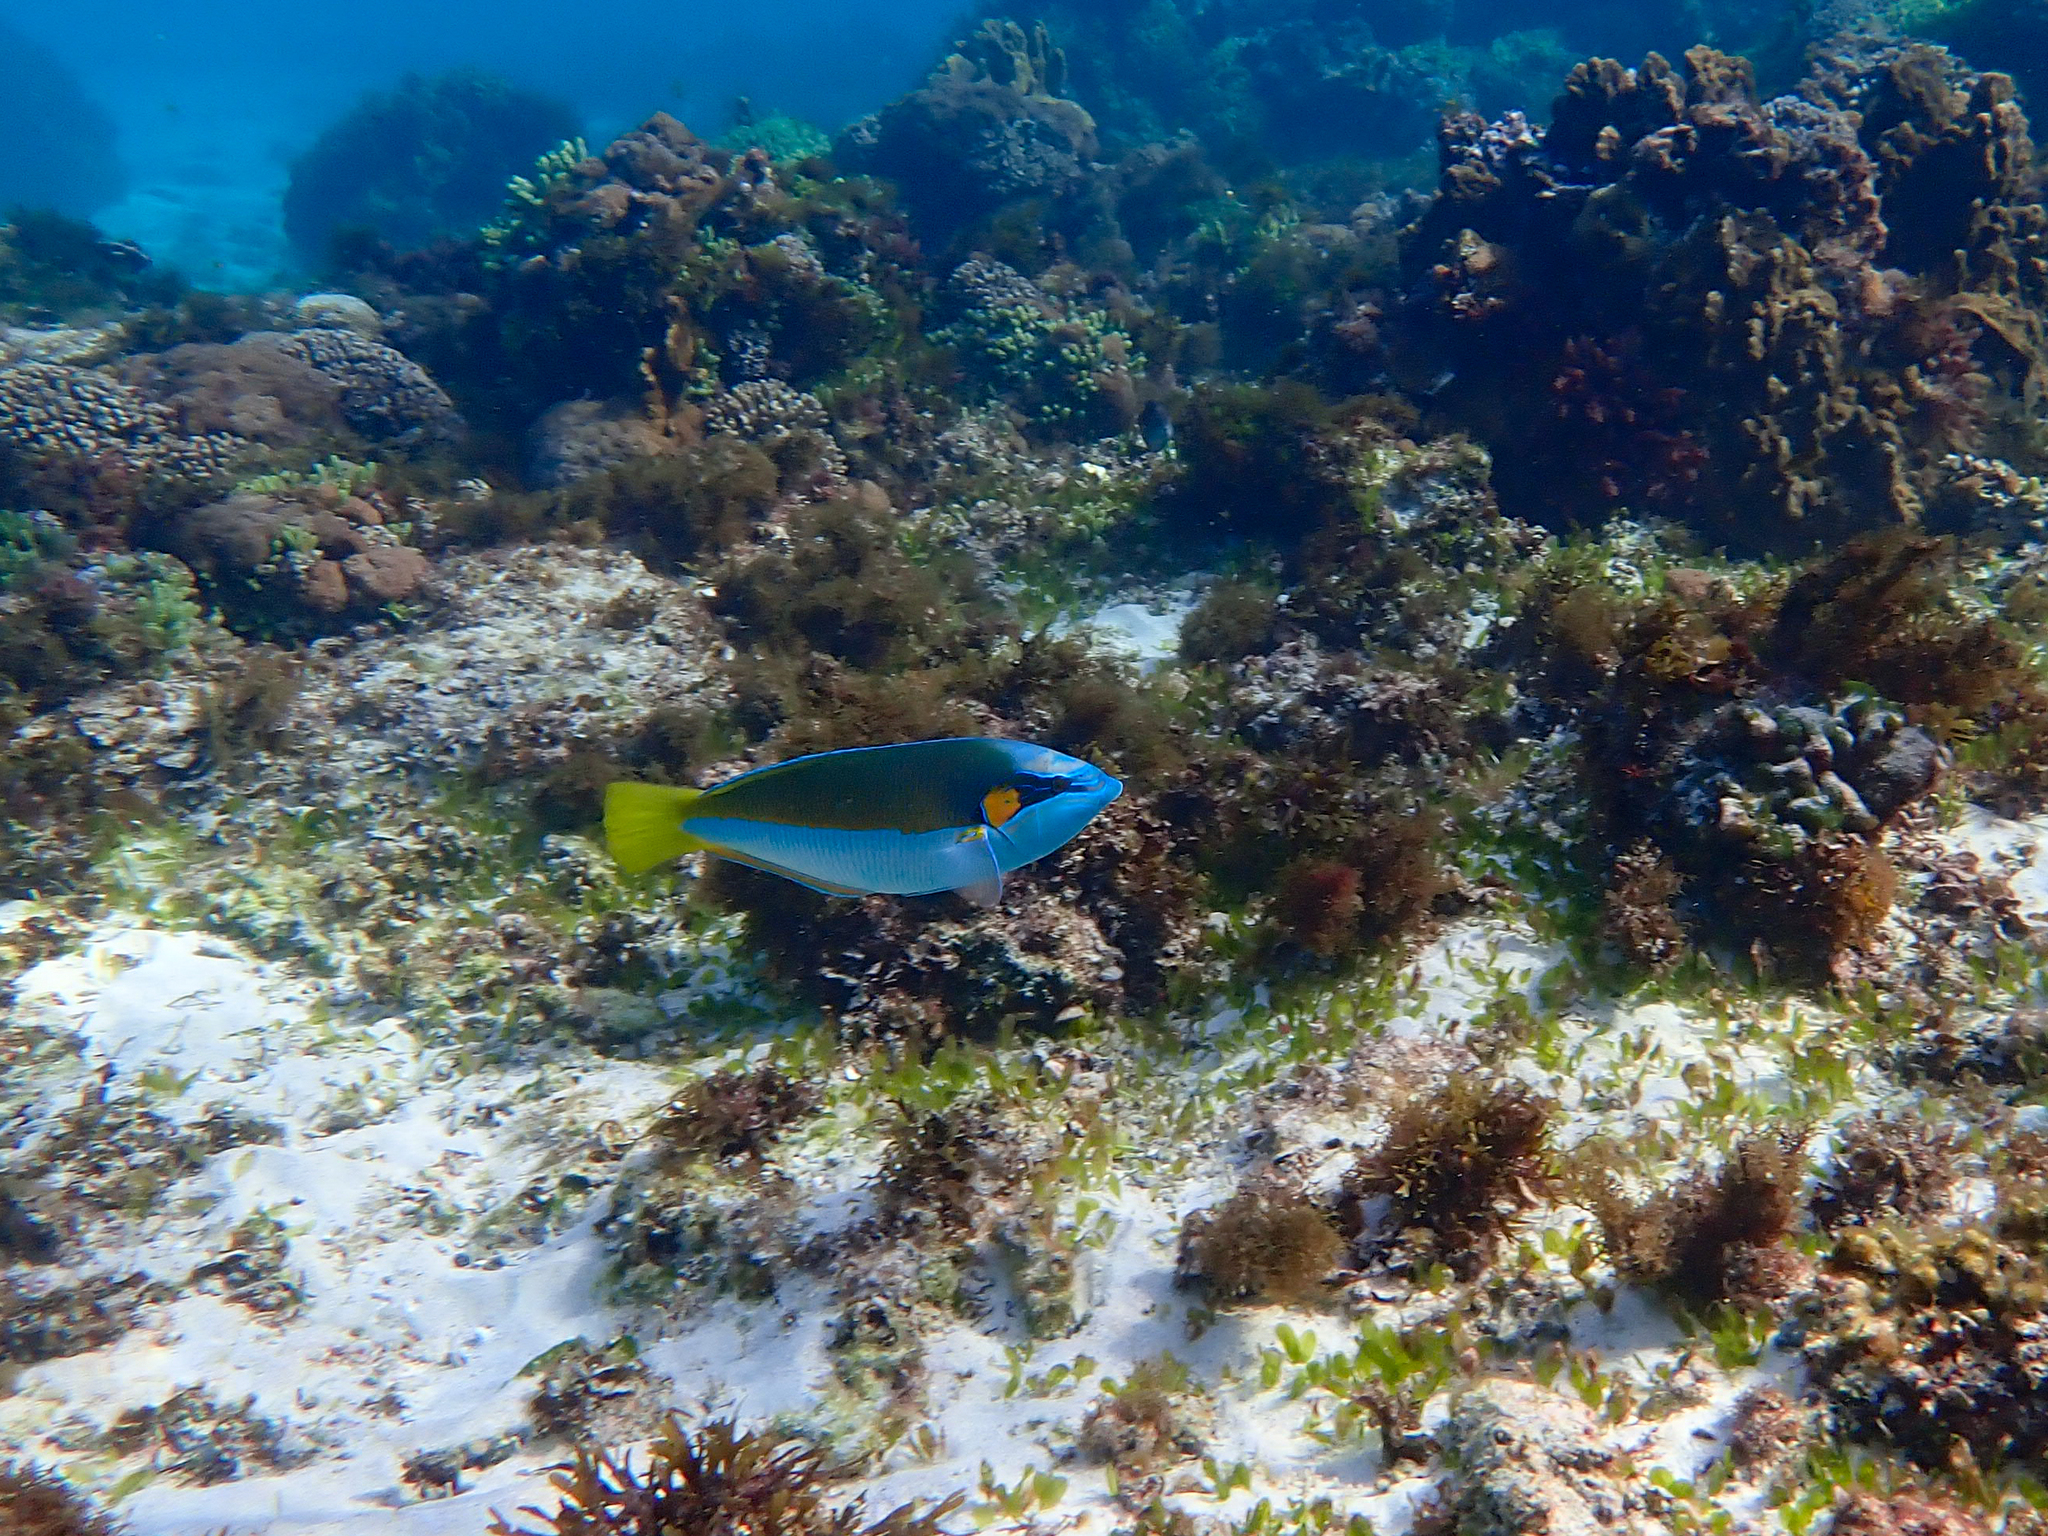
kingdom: Animalia
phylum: Chordata
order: Perciformes
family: Labridae
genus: Anampses
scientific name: Anampses elegans
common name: Elegant wrasse
